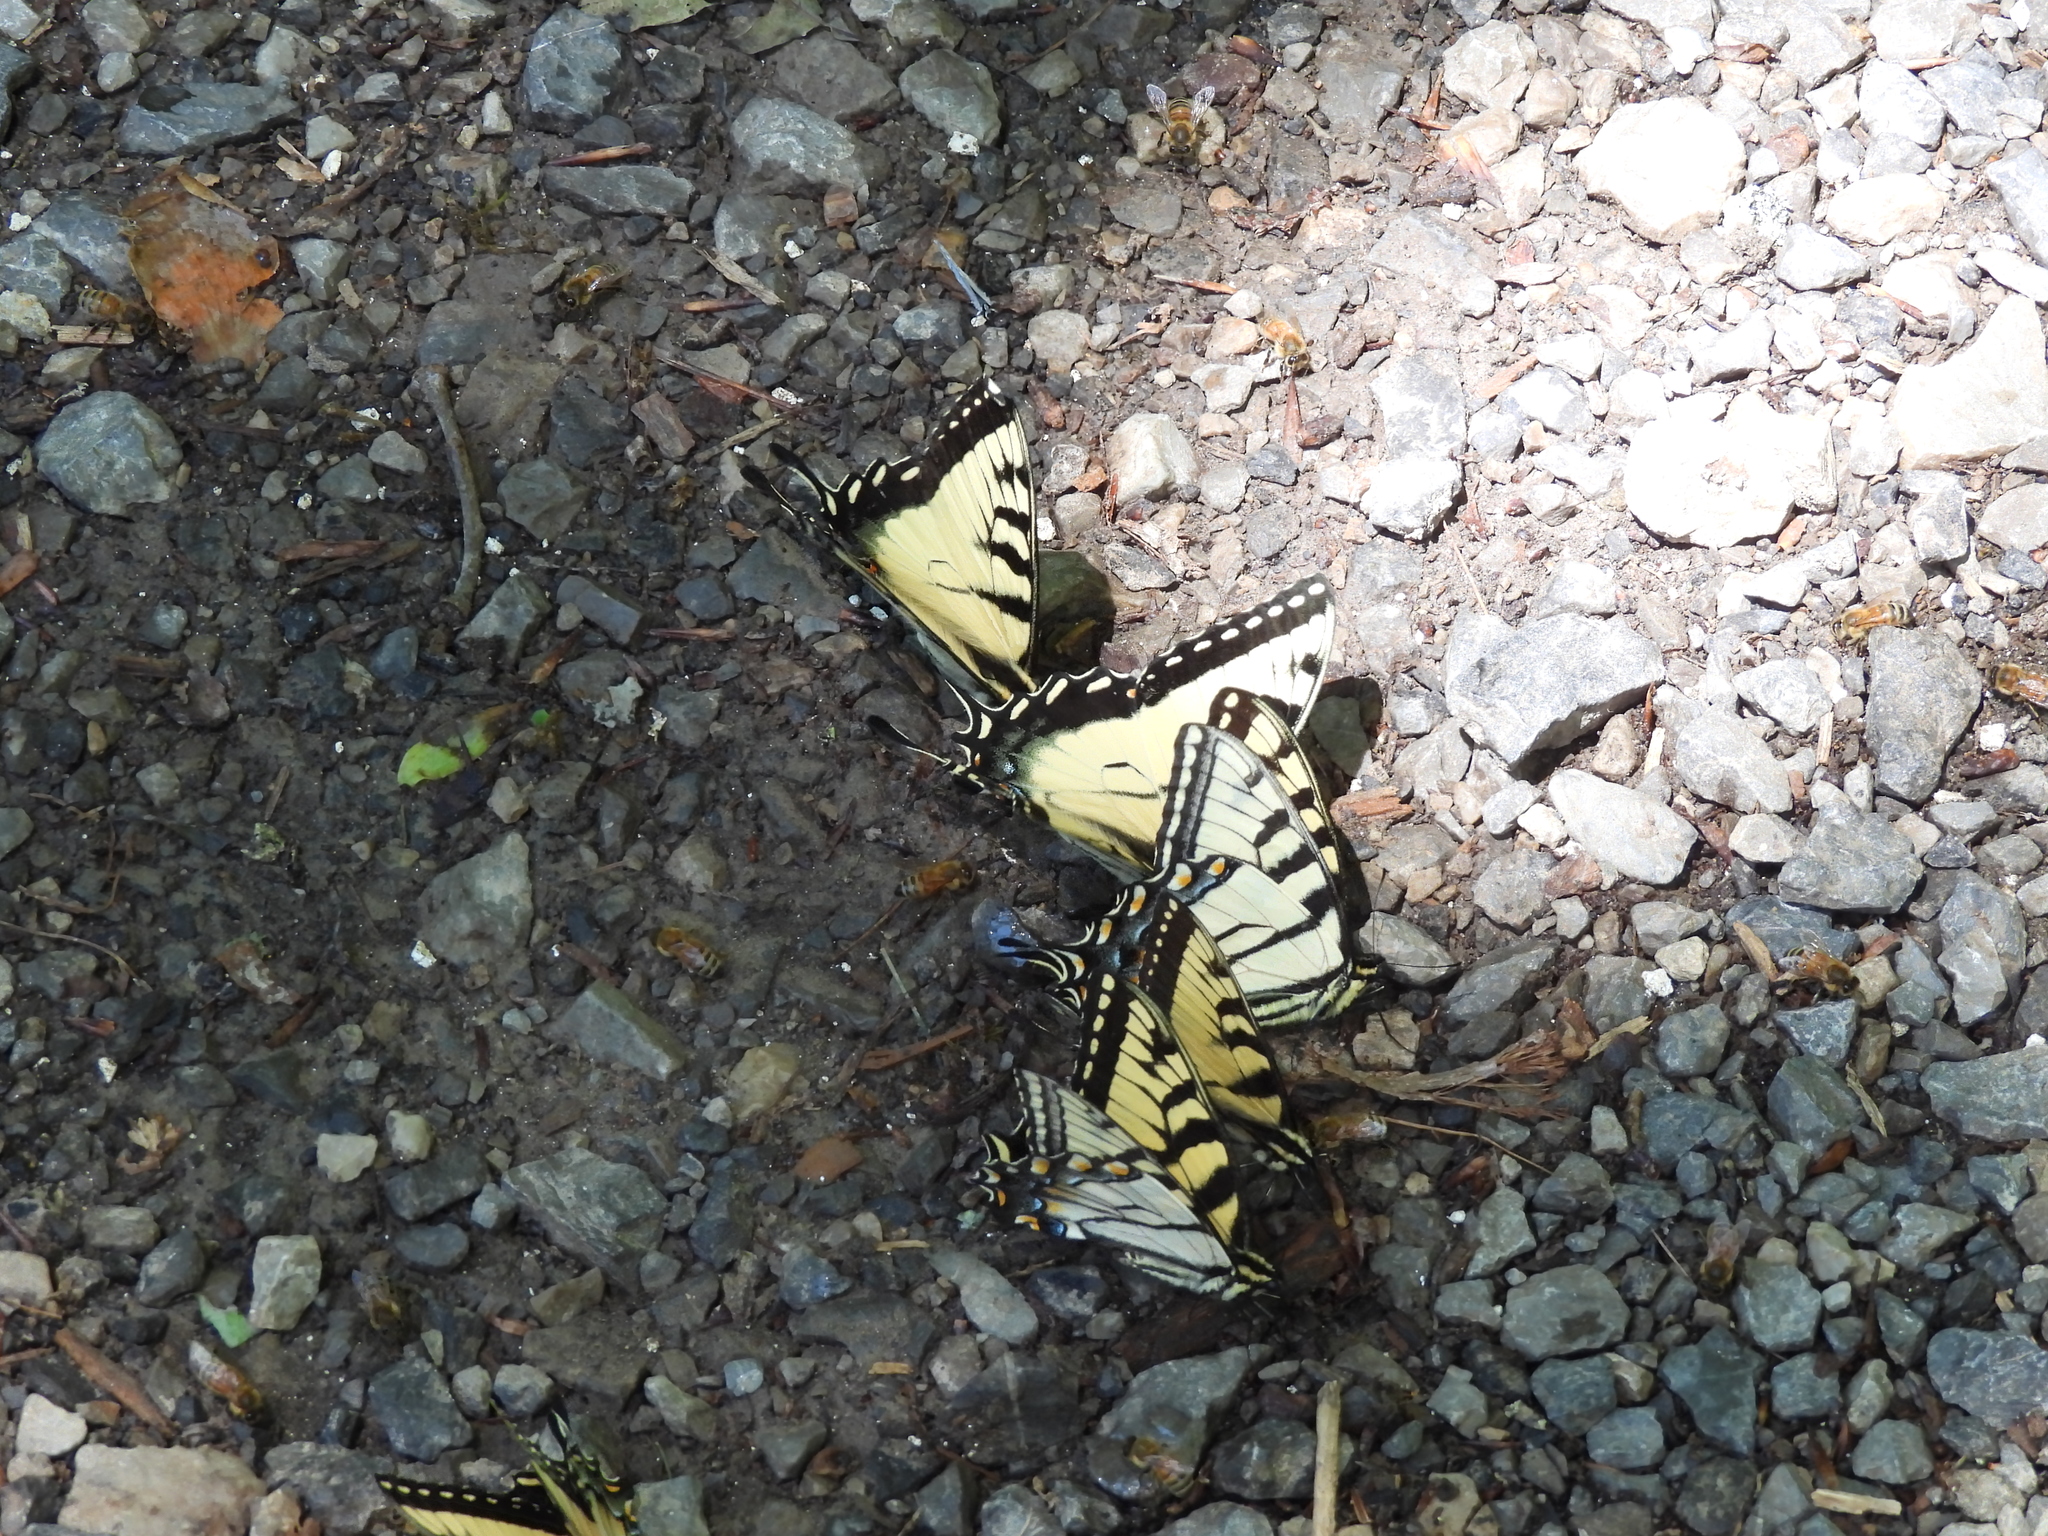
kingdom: Animalia
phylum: Arthropoda
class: Insecta
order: Lepidoptera
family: Papilionidae
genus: Papilio
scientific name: Papilio glaucus
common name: Tiger swallowtail
